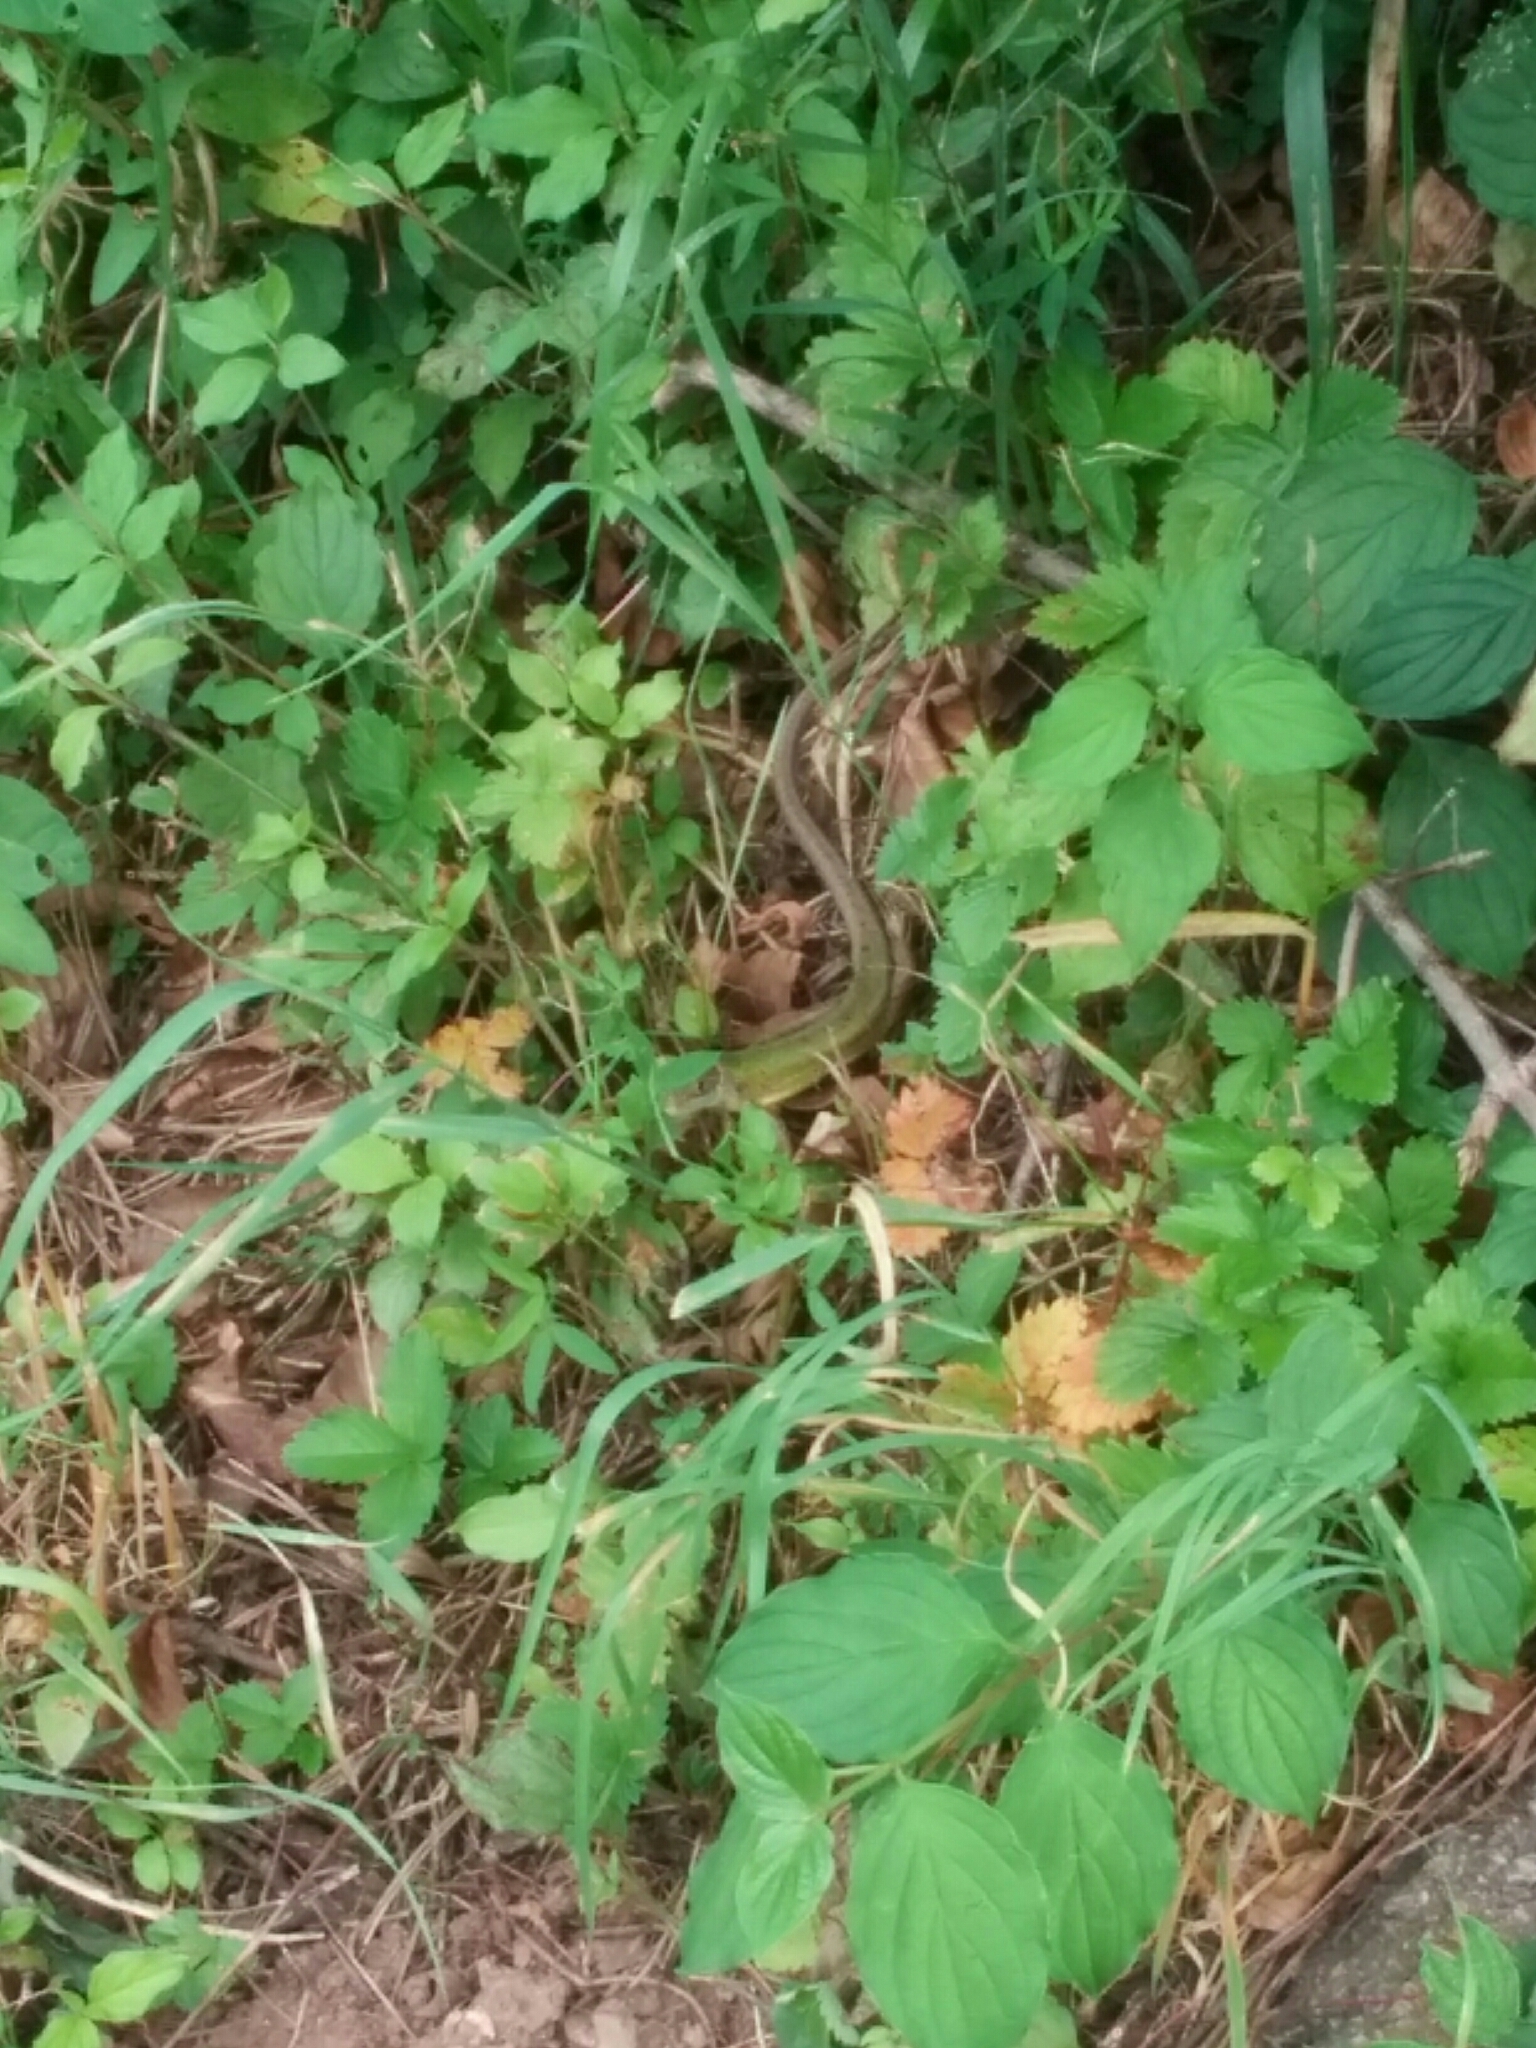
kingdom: Animalia
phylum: Chordata
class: Squamata
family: Lacertidae
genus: Lacerta
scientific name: Lacerta bilineata
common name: Western green lizard
